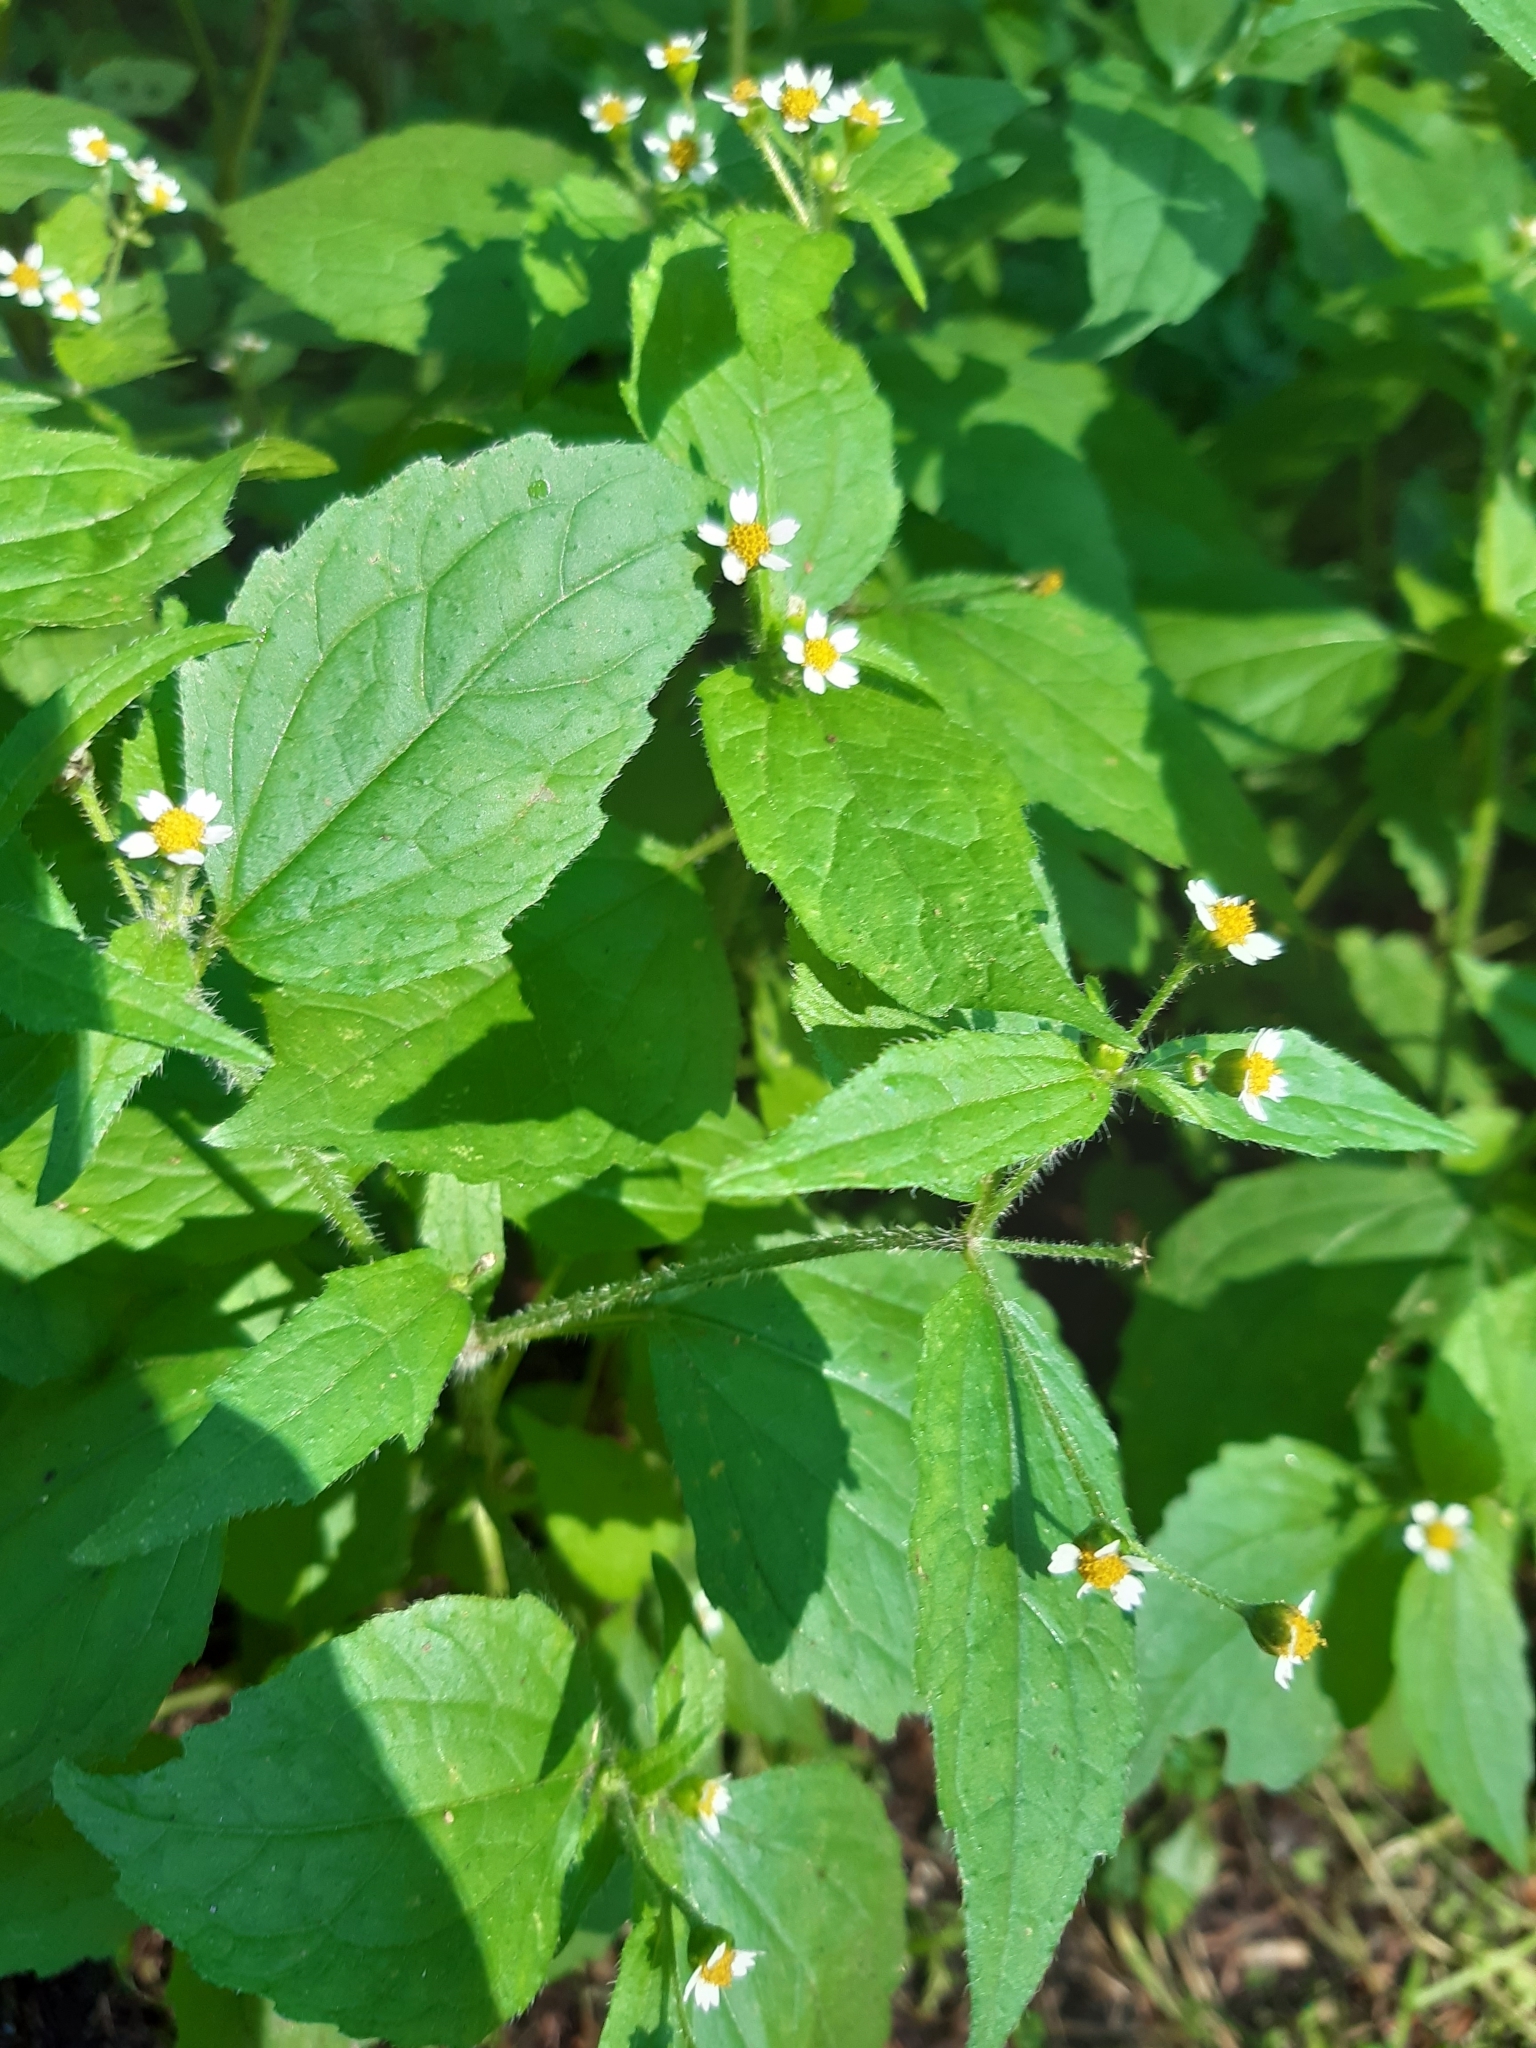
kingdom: Plantae
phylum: Tracheophyta
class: Magnoliopsida
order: Asterales
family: Asteraceae
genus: Galinsoga
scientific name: Galinsoga quadriradiata
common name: Shaggy soldier
